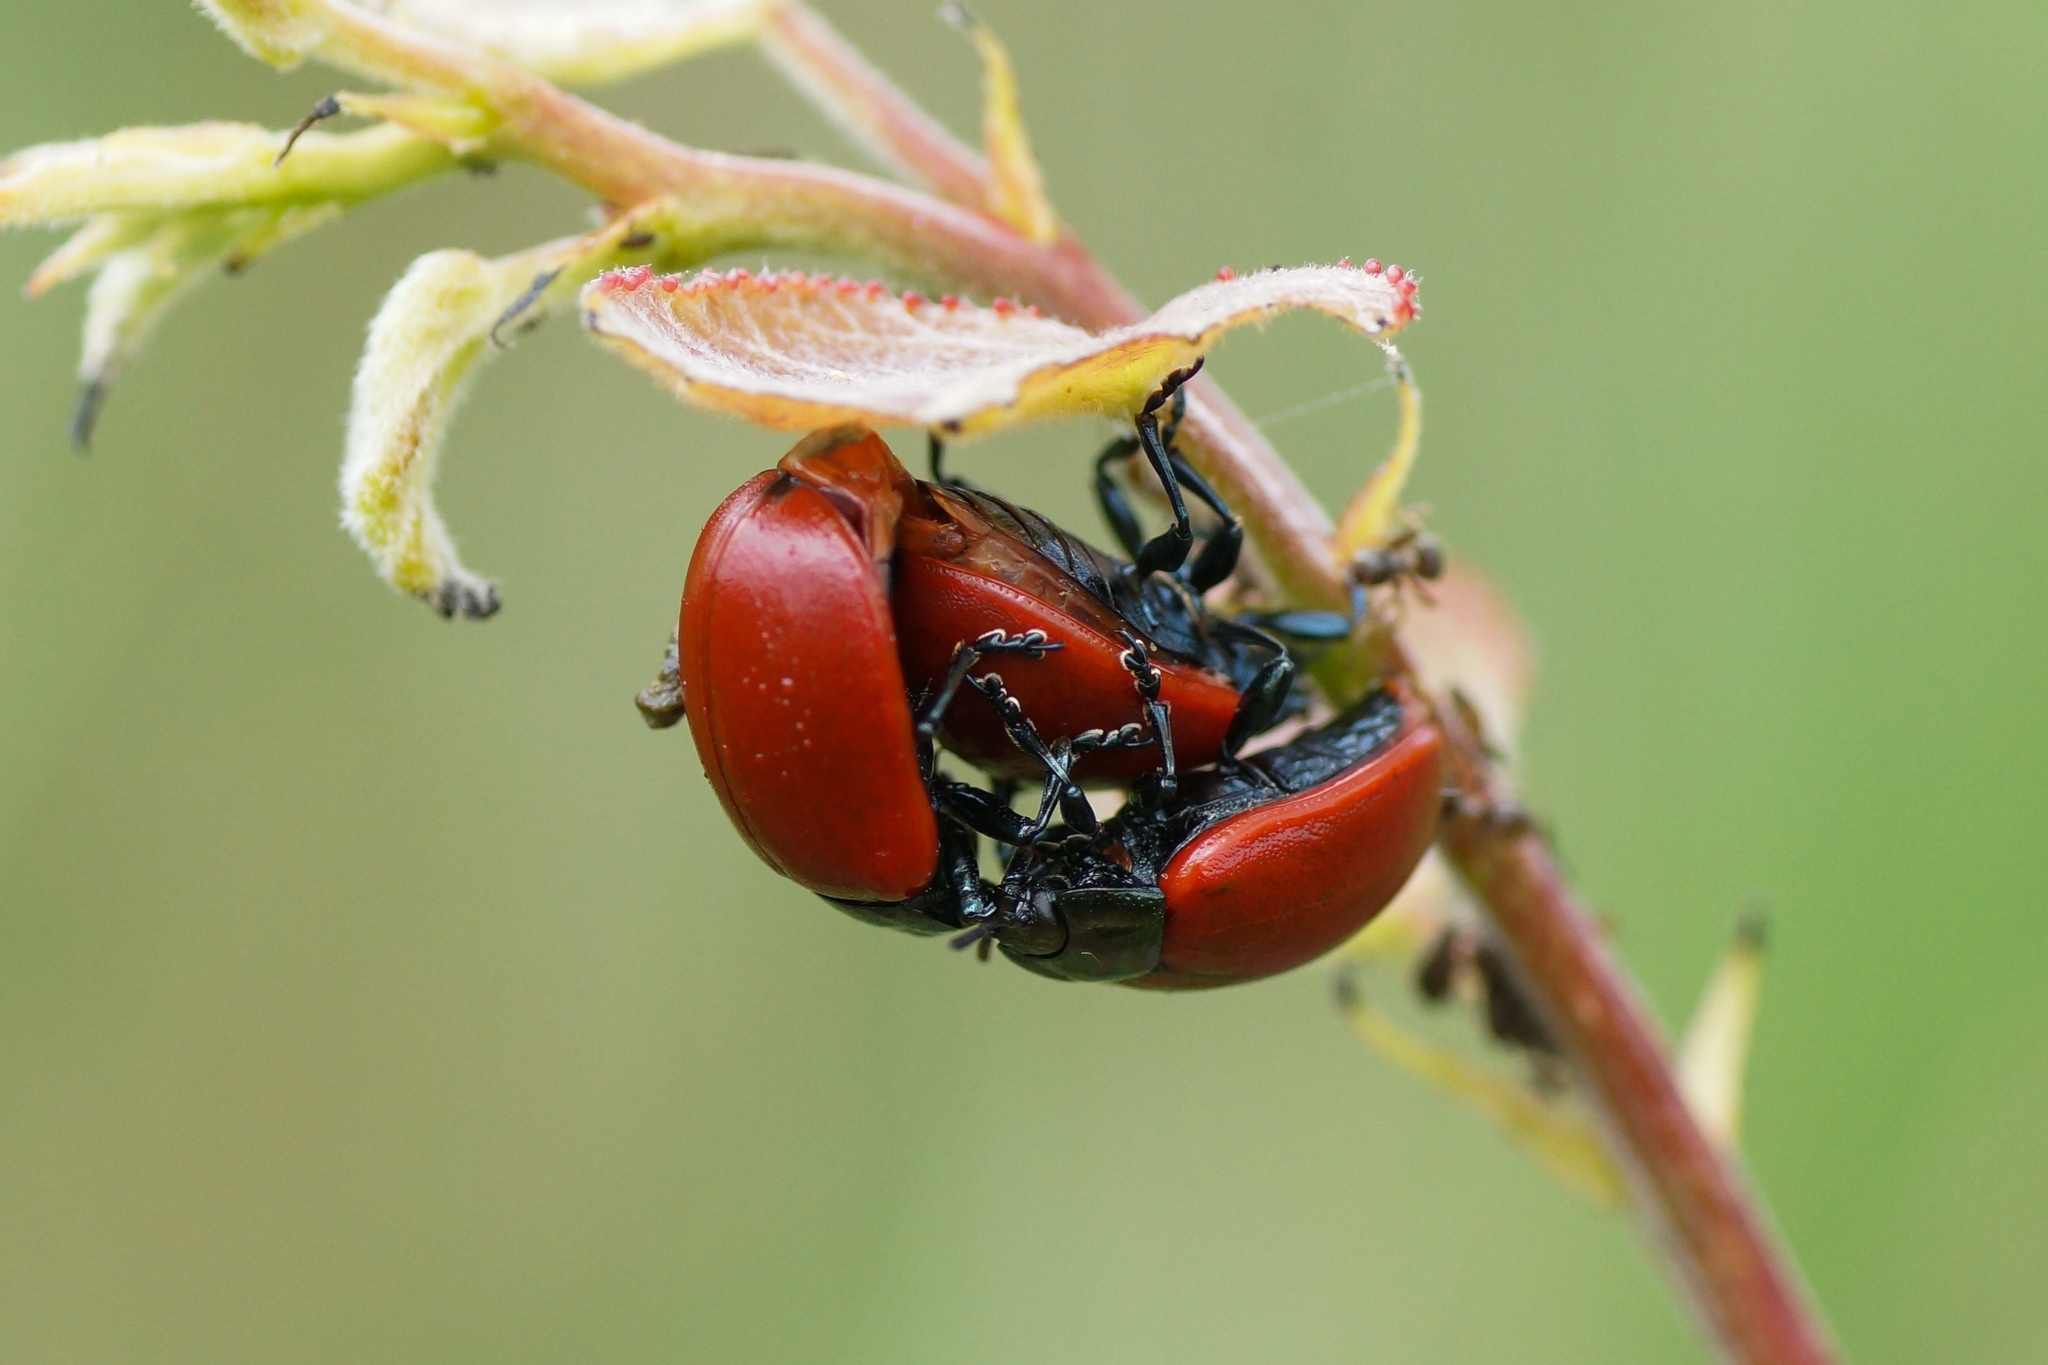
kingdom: Animalia
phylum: Arthropoda
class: Insecta
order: Coleoptera
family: Chrysomelidae
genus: Chrysomela
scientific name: Chrysomela populi
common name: Red poplar leaf beetle
